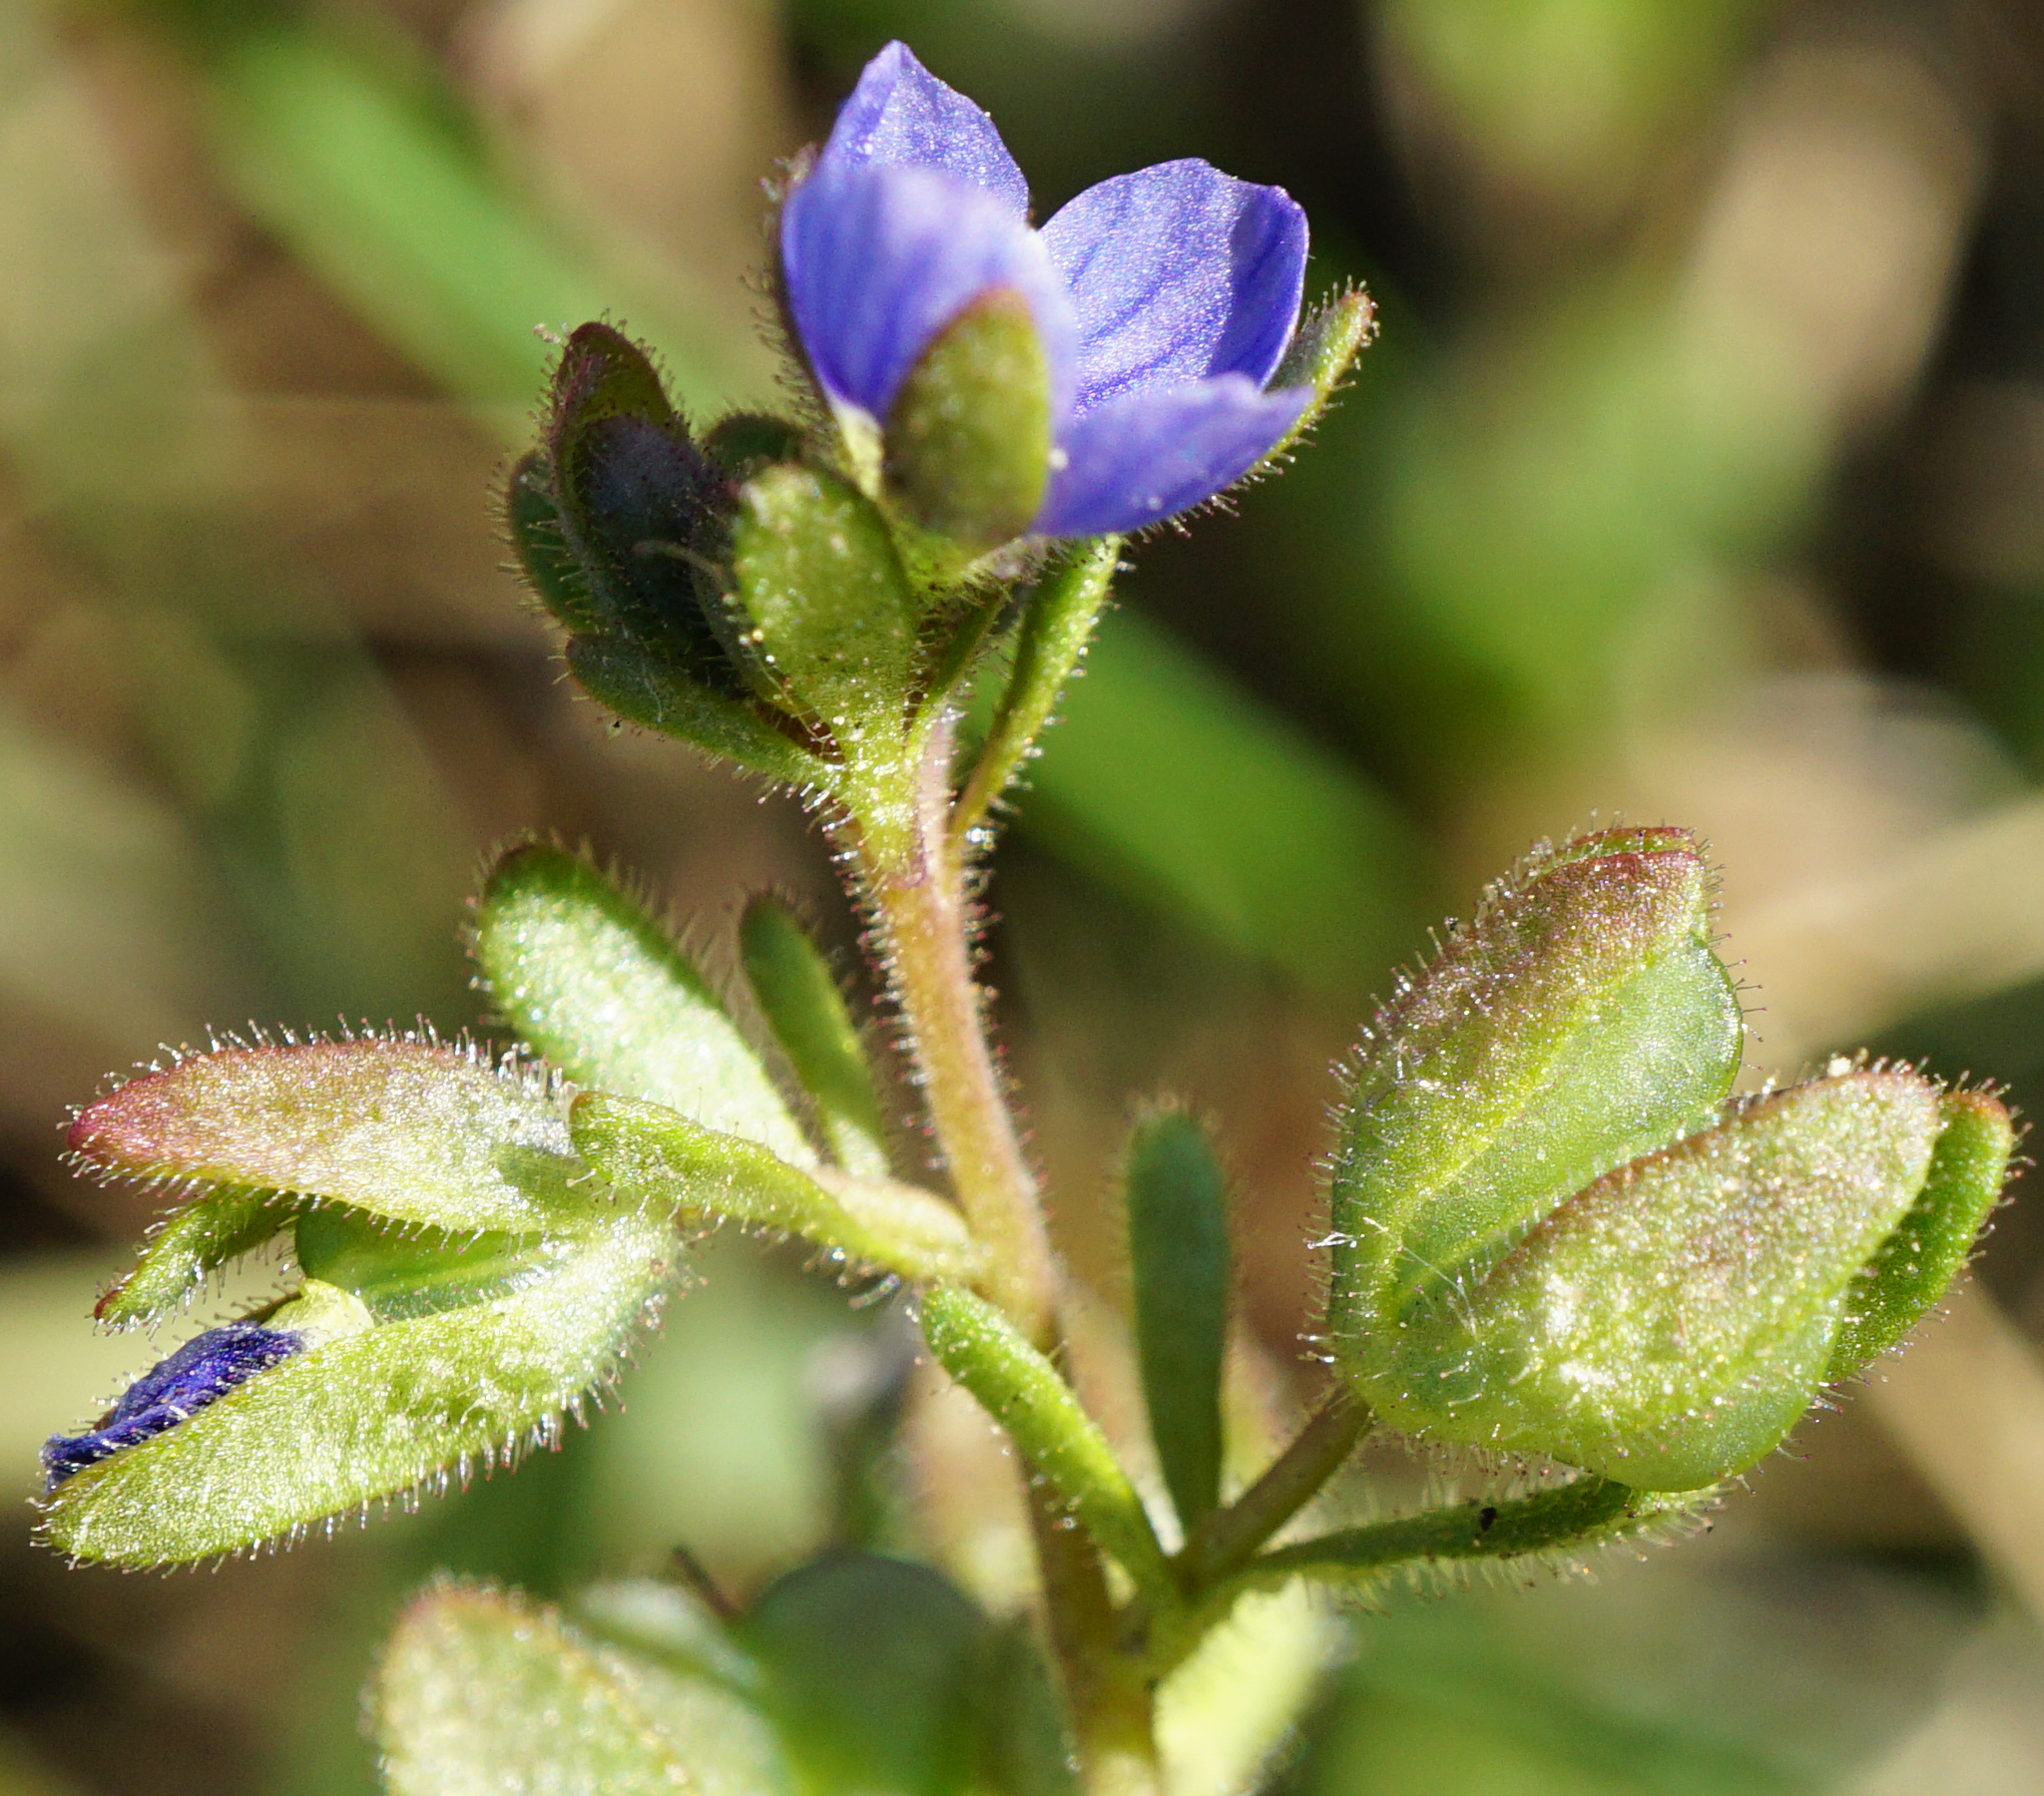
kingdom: Plantae
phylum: Tracheophyta
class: Magnoliopsida
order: Lamiales
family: Plantaginaceae
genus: Veronica
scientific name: Veronica triphyllos
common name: Fingered speedwell
